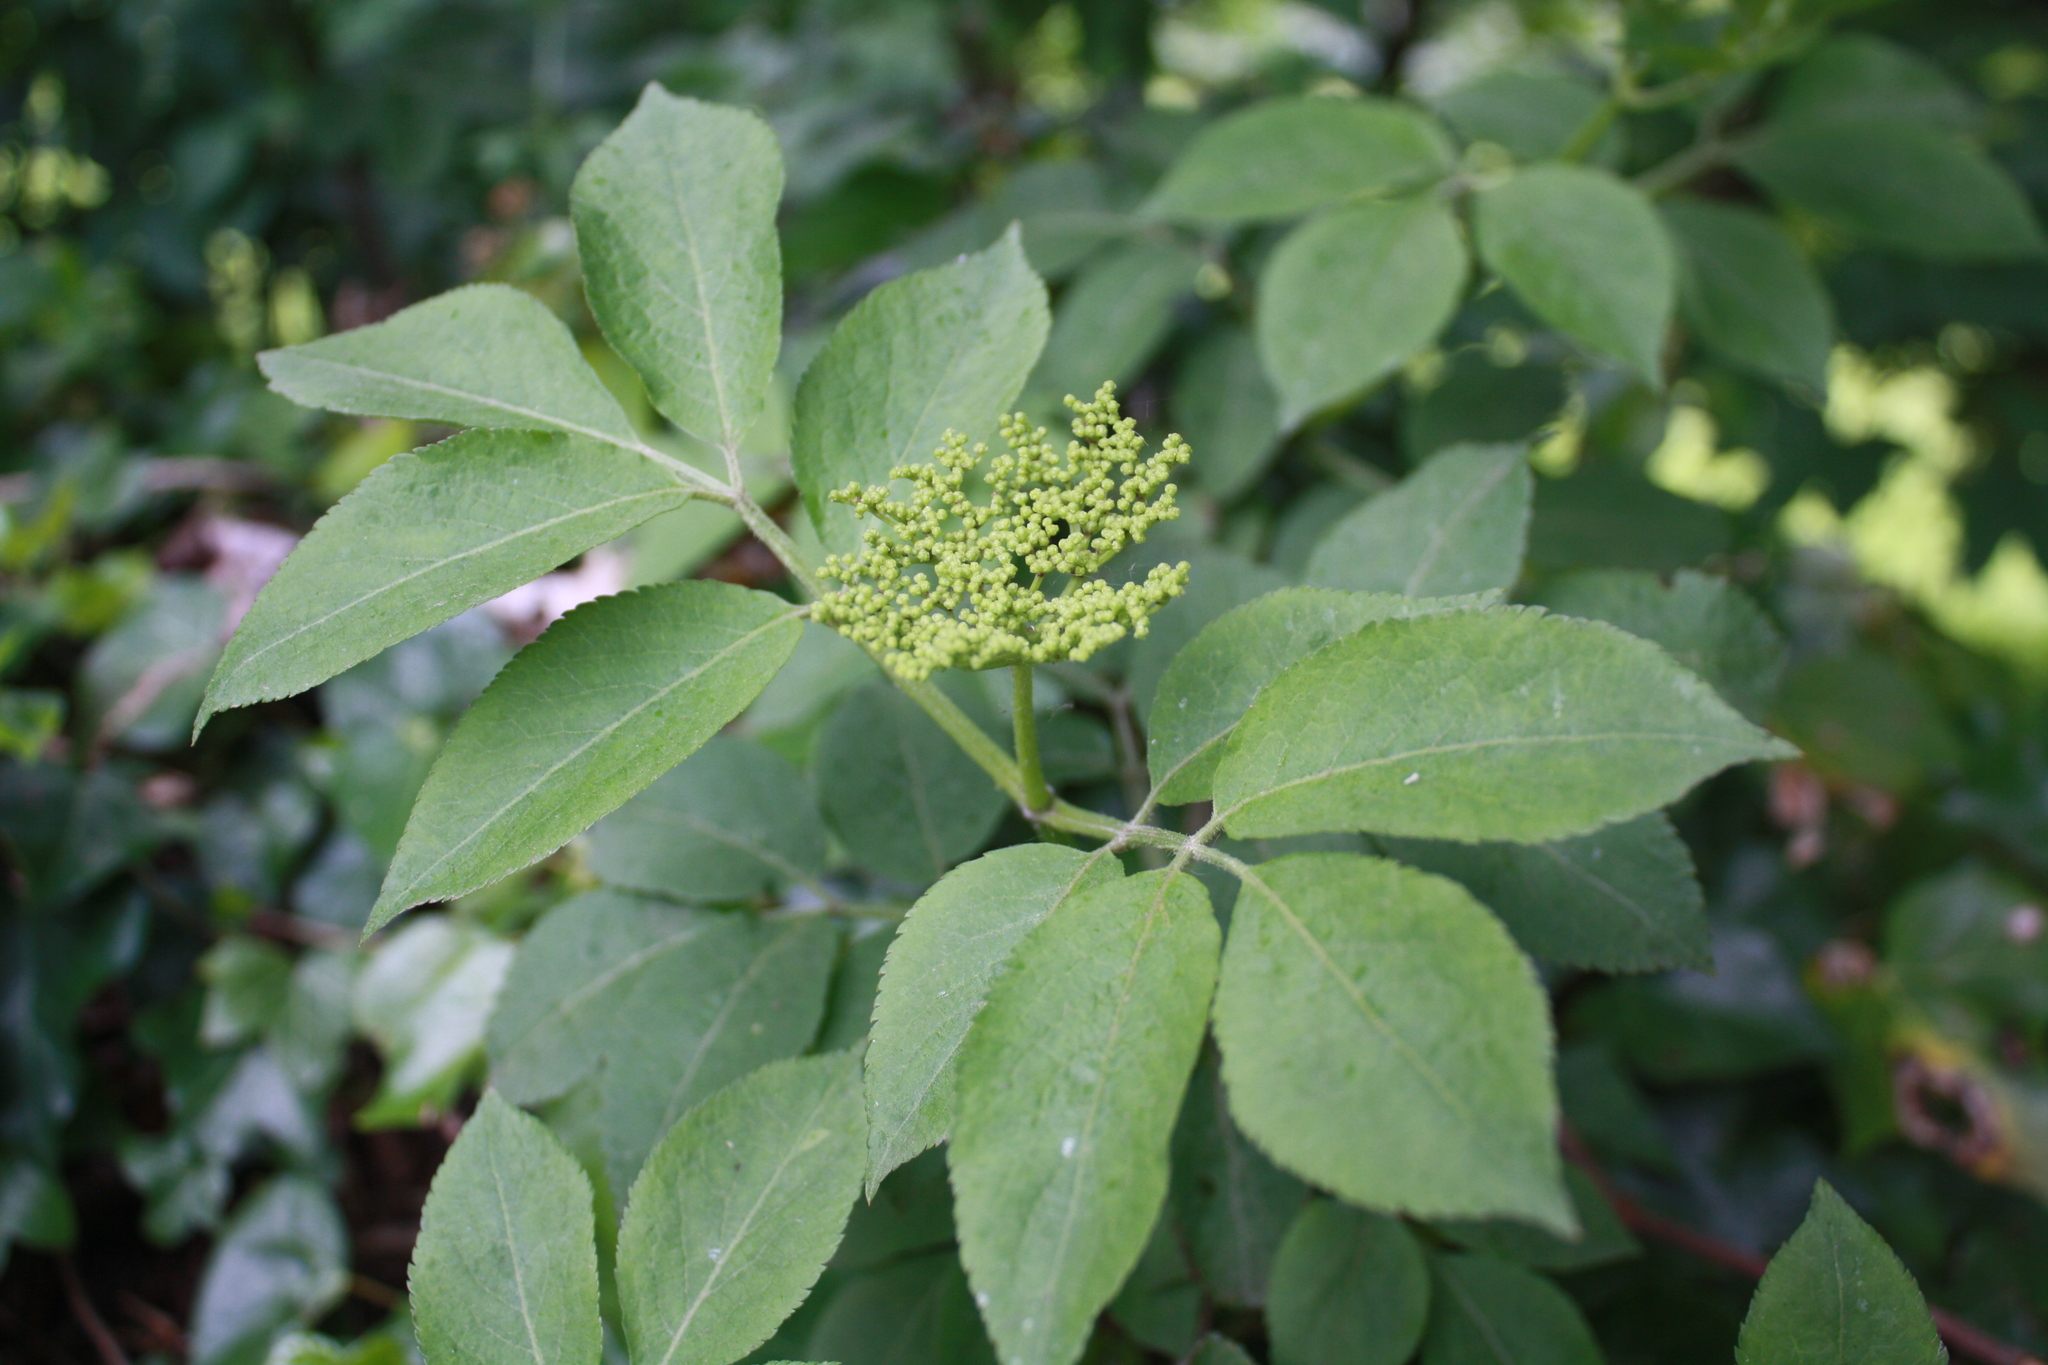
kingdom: Plantae
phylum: Tracheophyta
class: Magnoliopsida
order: Dipsacales
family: Viburnaceae
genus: Sambucus
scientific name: Sambucus nigra
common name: Elder
